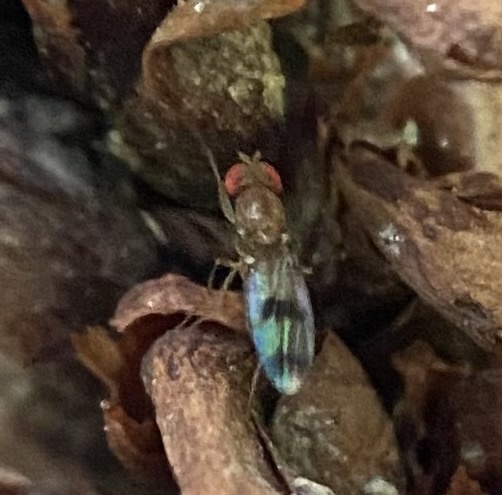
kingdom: Animalia
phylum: Arthropoda
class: Insecta
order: Diptera
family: Drosophilidae
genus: Chymomyza
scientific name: Chymomyza amoena
